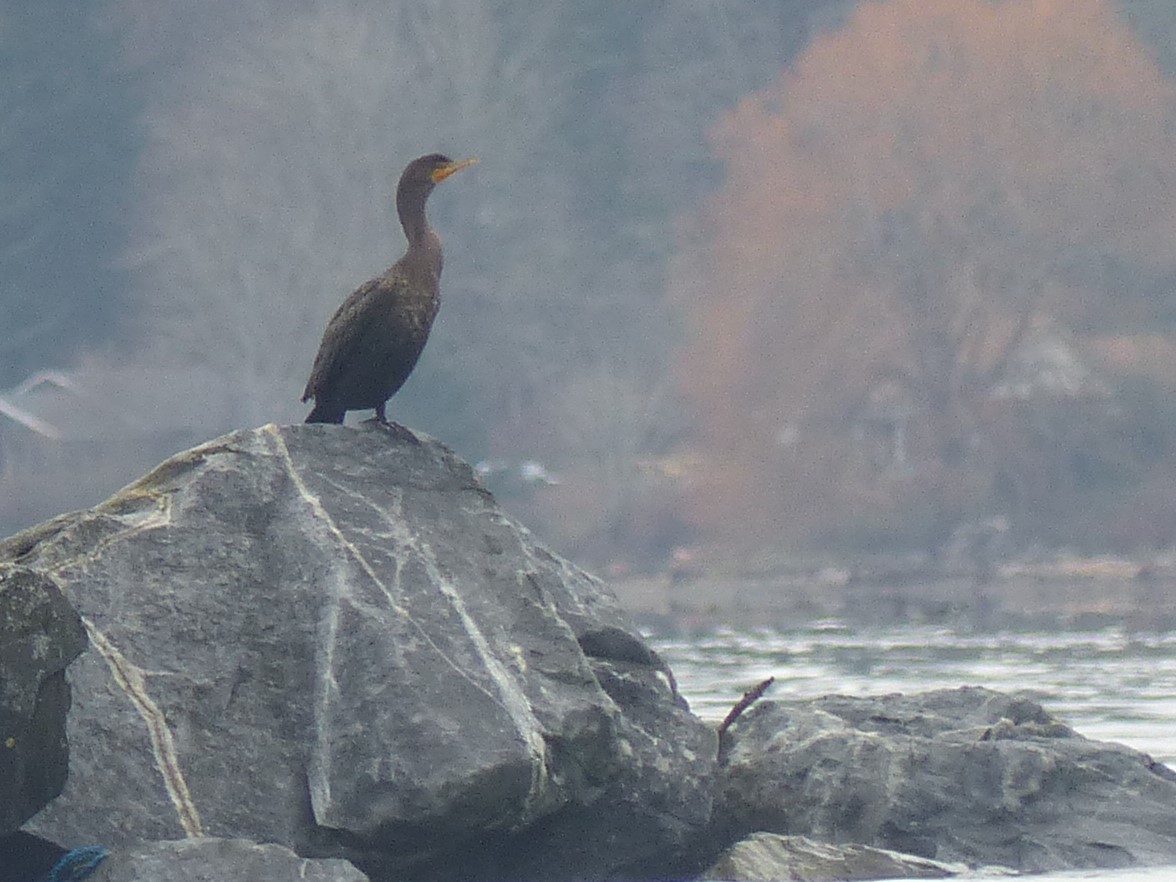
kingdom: Animalia
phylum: Chordata
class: Aves
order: Suliformes
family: Phalacrocoracidae
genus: Phalacrocorax
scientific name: Phalacrocorax auritus
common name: Double-crested cormorant
